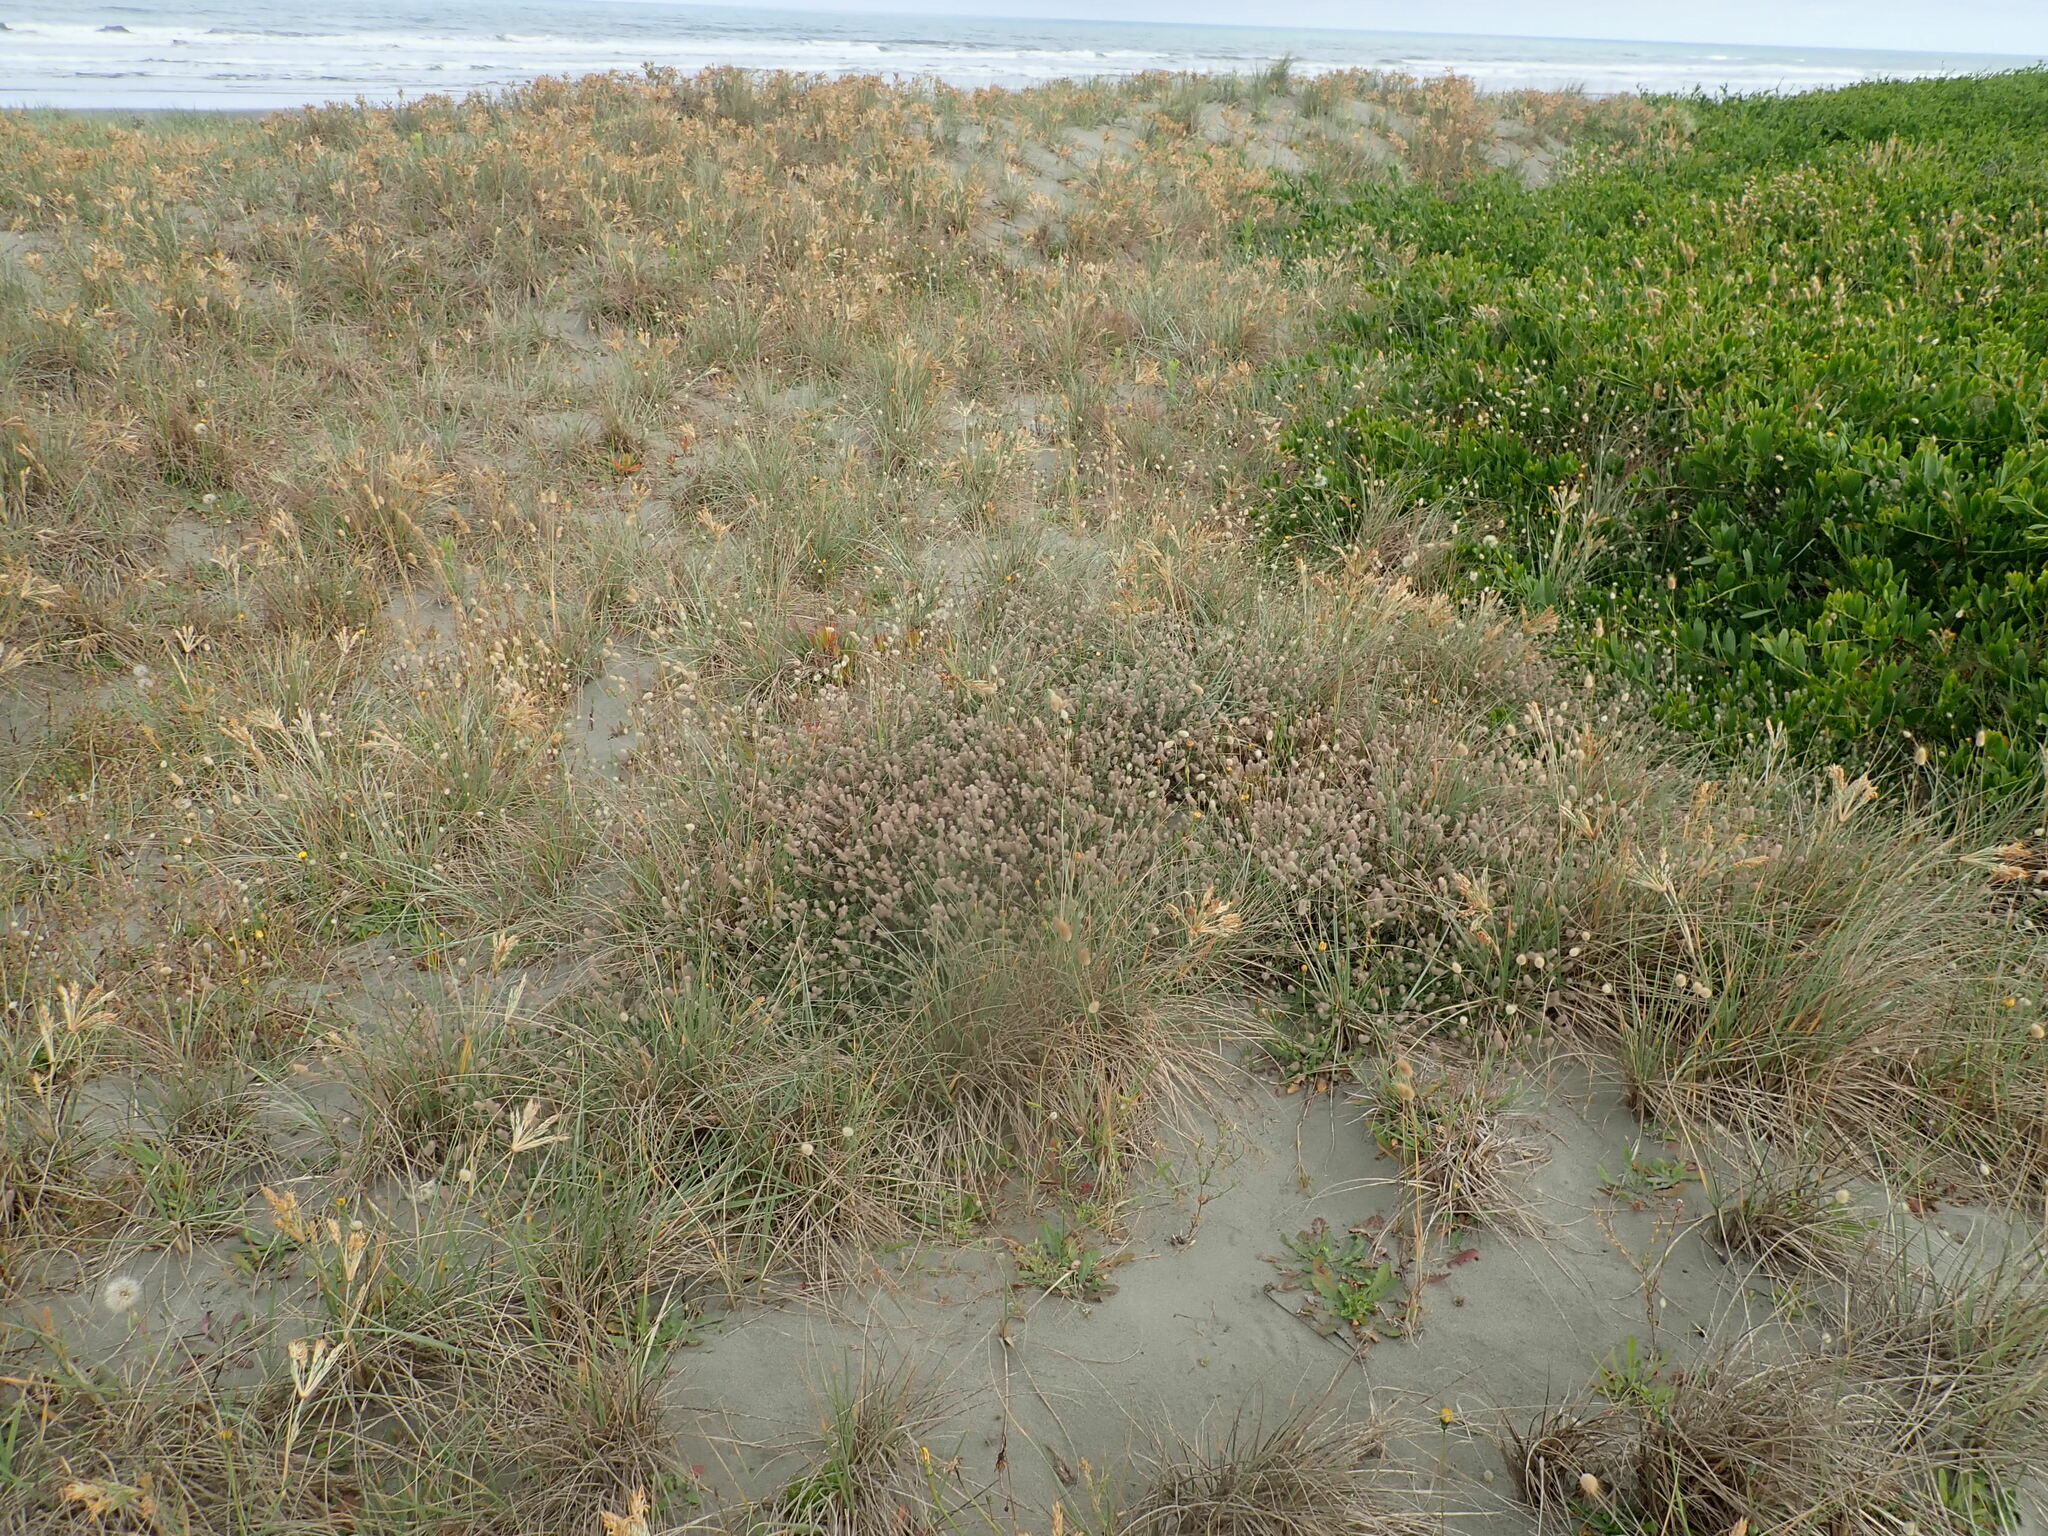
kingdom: Plantae
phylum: Tracheophyta
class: Magnoliopsida
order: Fabales
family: Fabaceae
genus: Trifolium
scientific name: Trifolium arvense
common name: Hare's-foot clover
